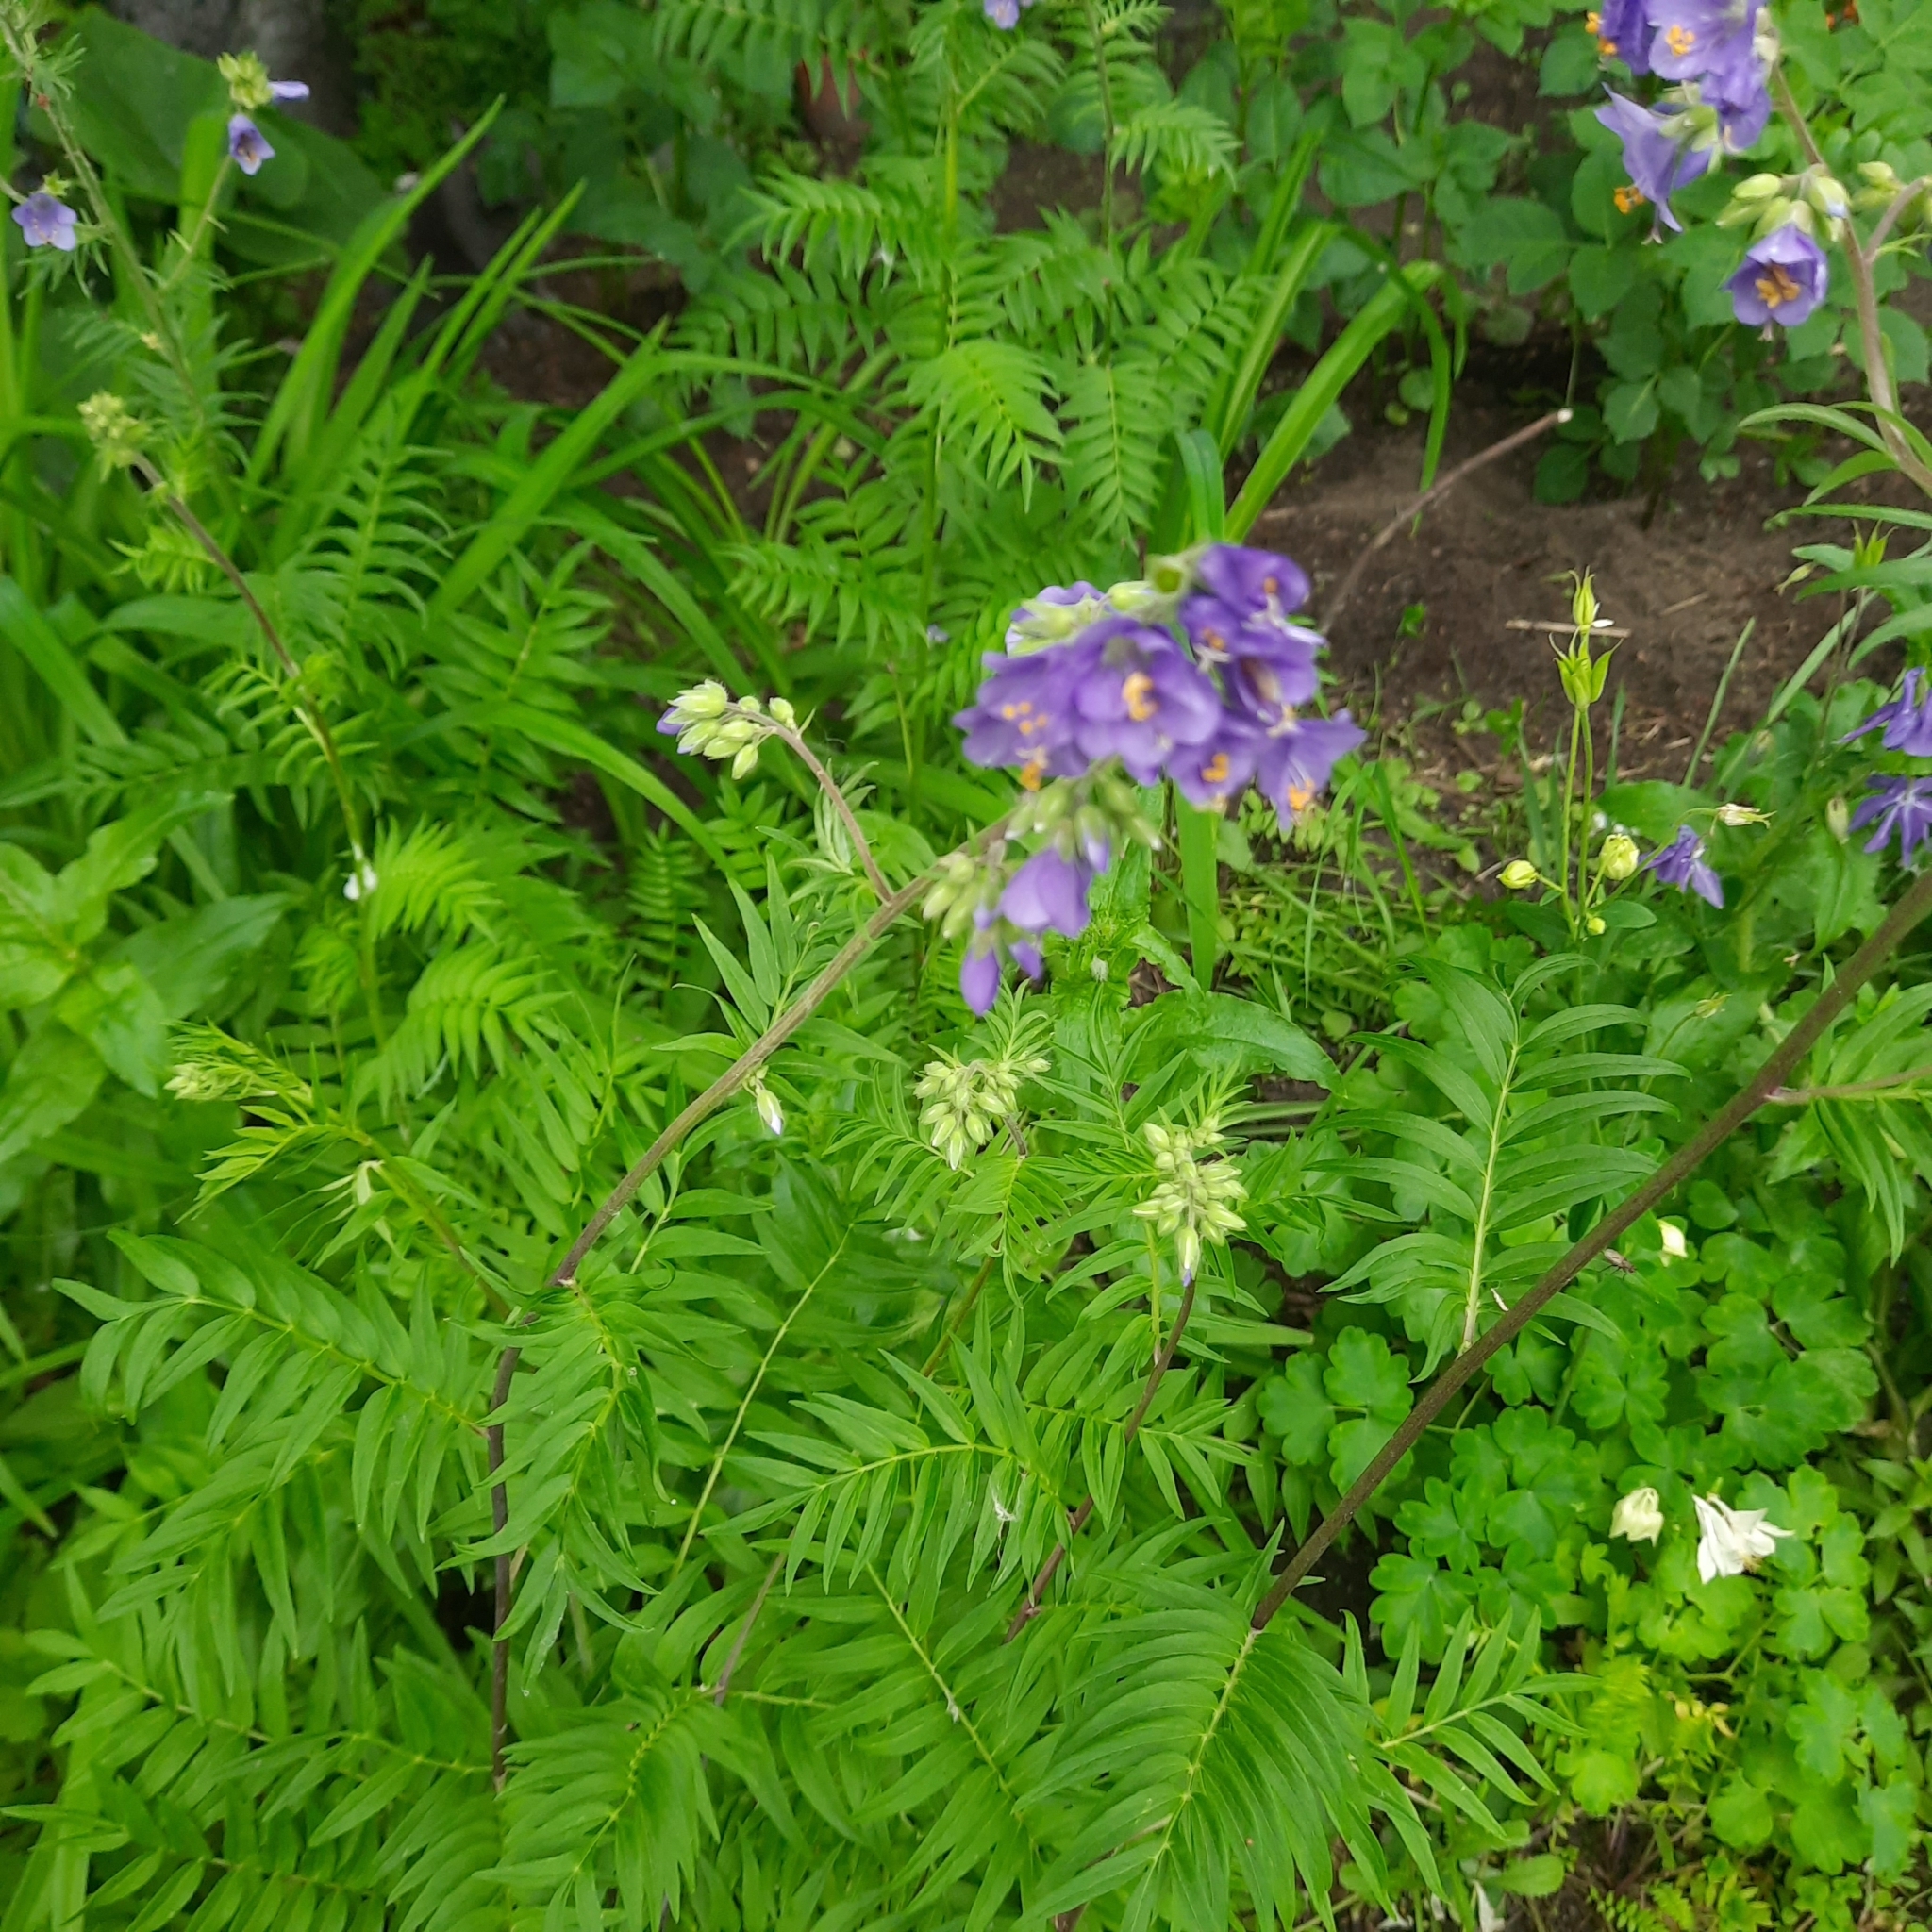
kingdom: Plantae
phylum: Tracheophyta
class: Magnoliopsida
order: Ericales
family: Polemoniaceae
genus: Polemonium
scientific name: Polemonium caeruleum
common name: Jacob's-ladder
